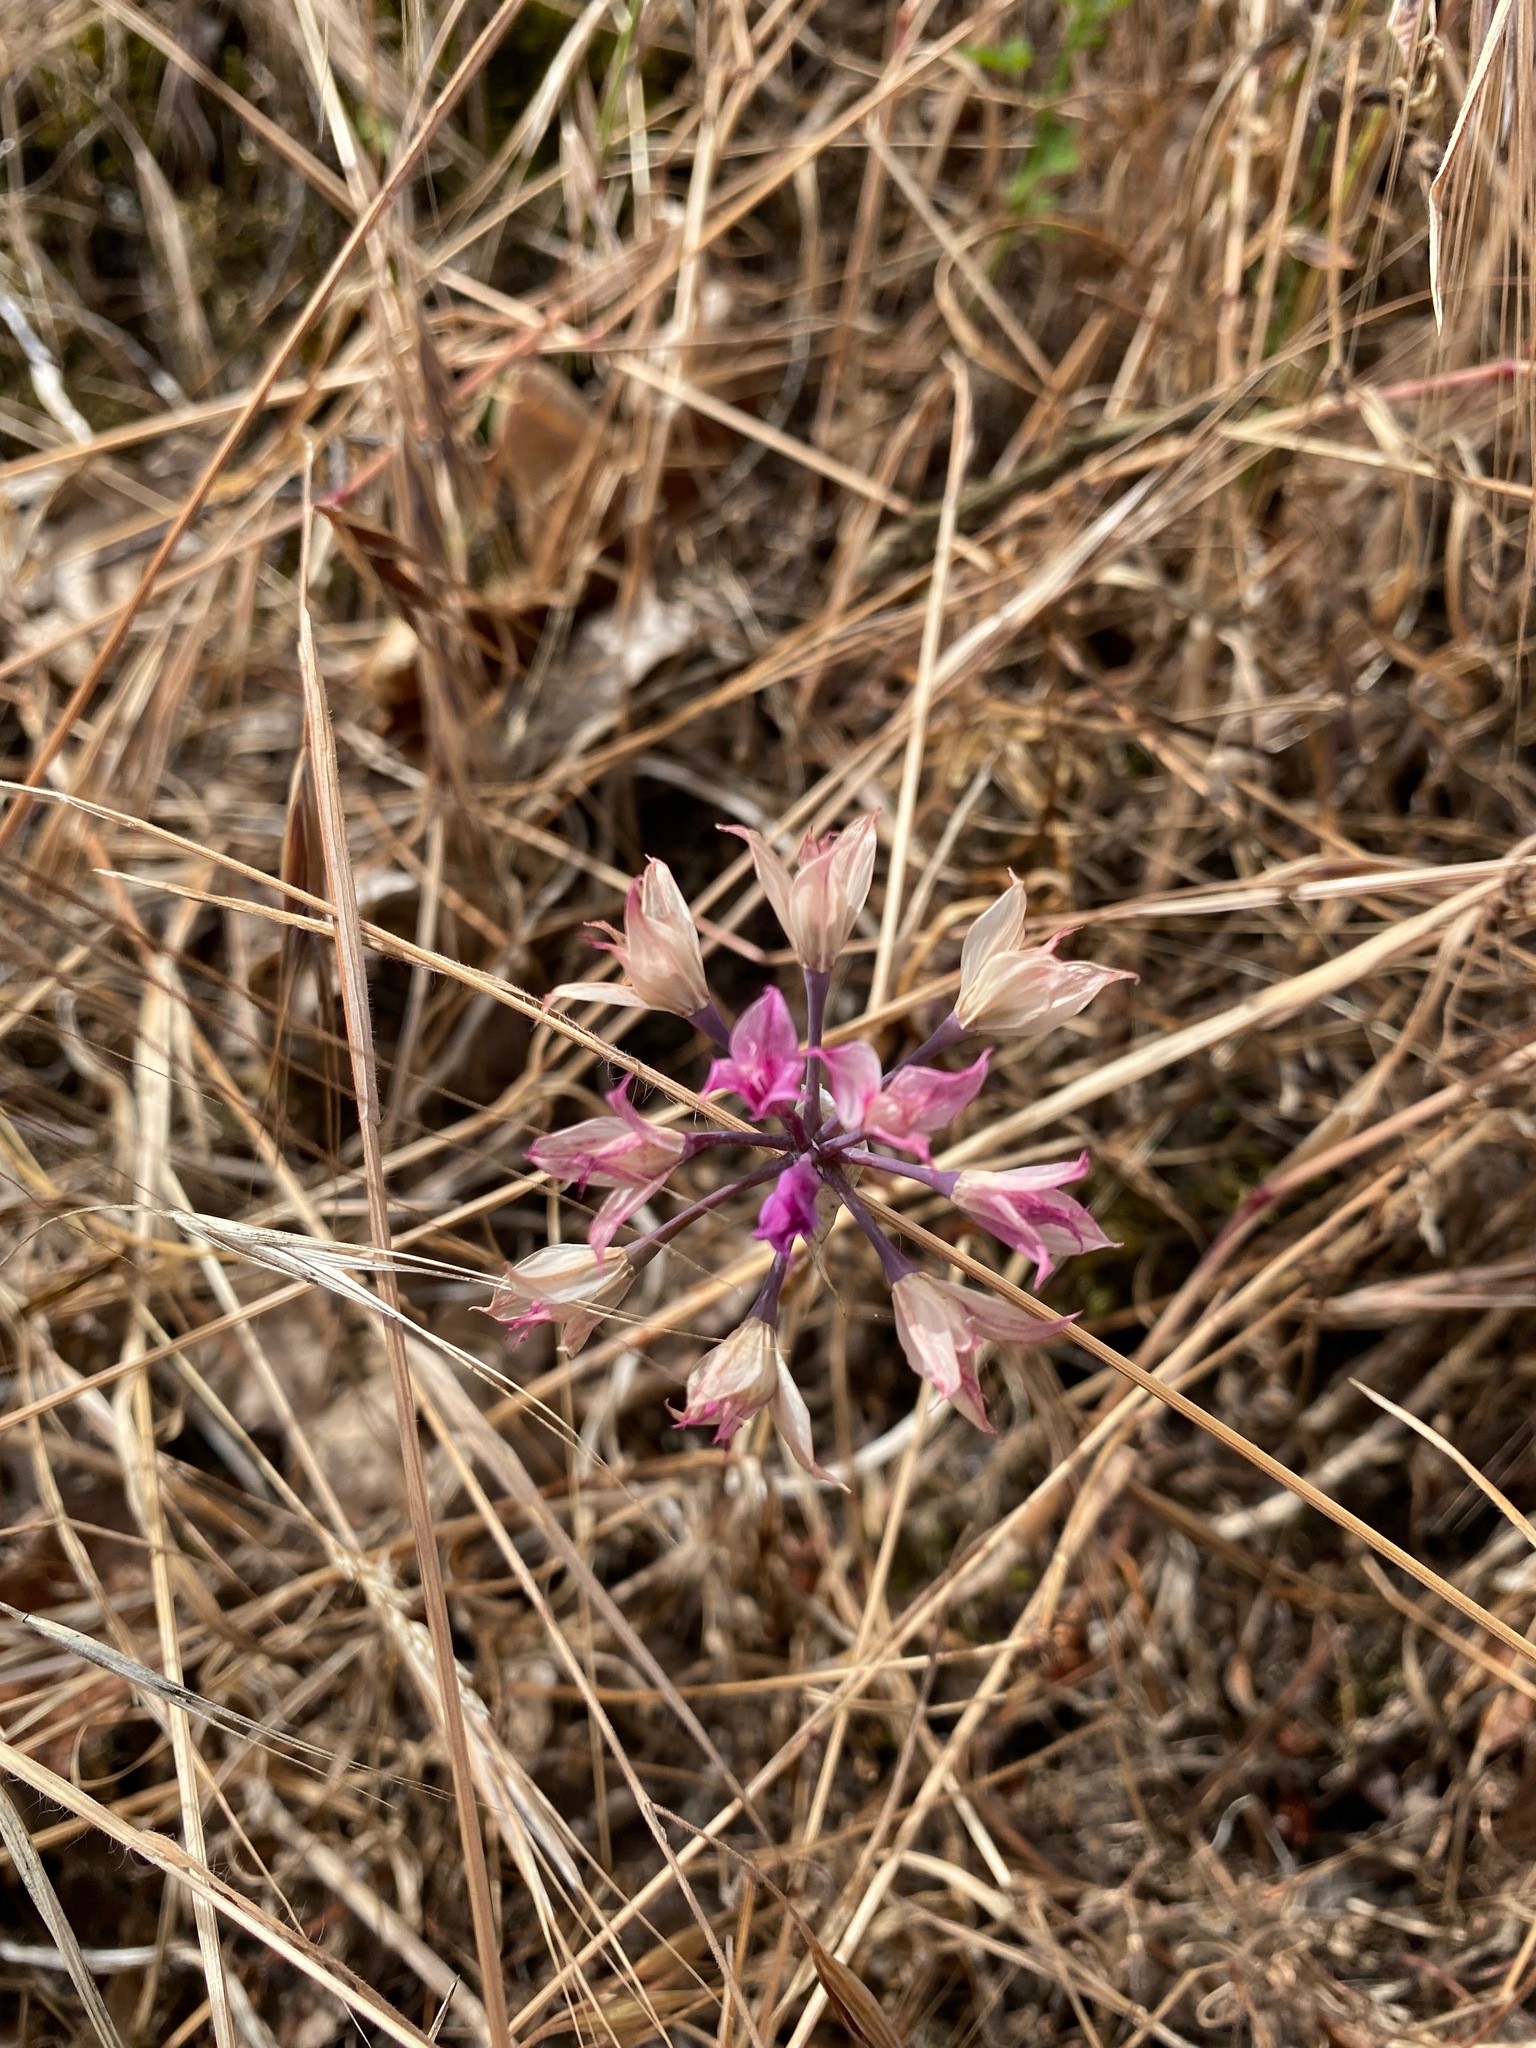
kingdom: Plantae
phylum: Tracheophyta
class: Liliopsida
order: Asparagales
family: Amaryllidaceae
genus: Allium
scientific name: Allium acuminatum
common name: Hooker's onion
